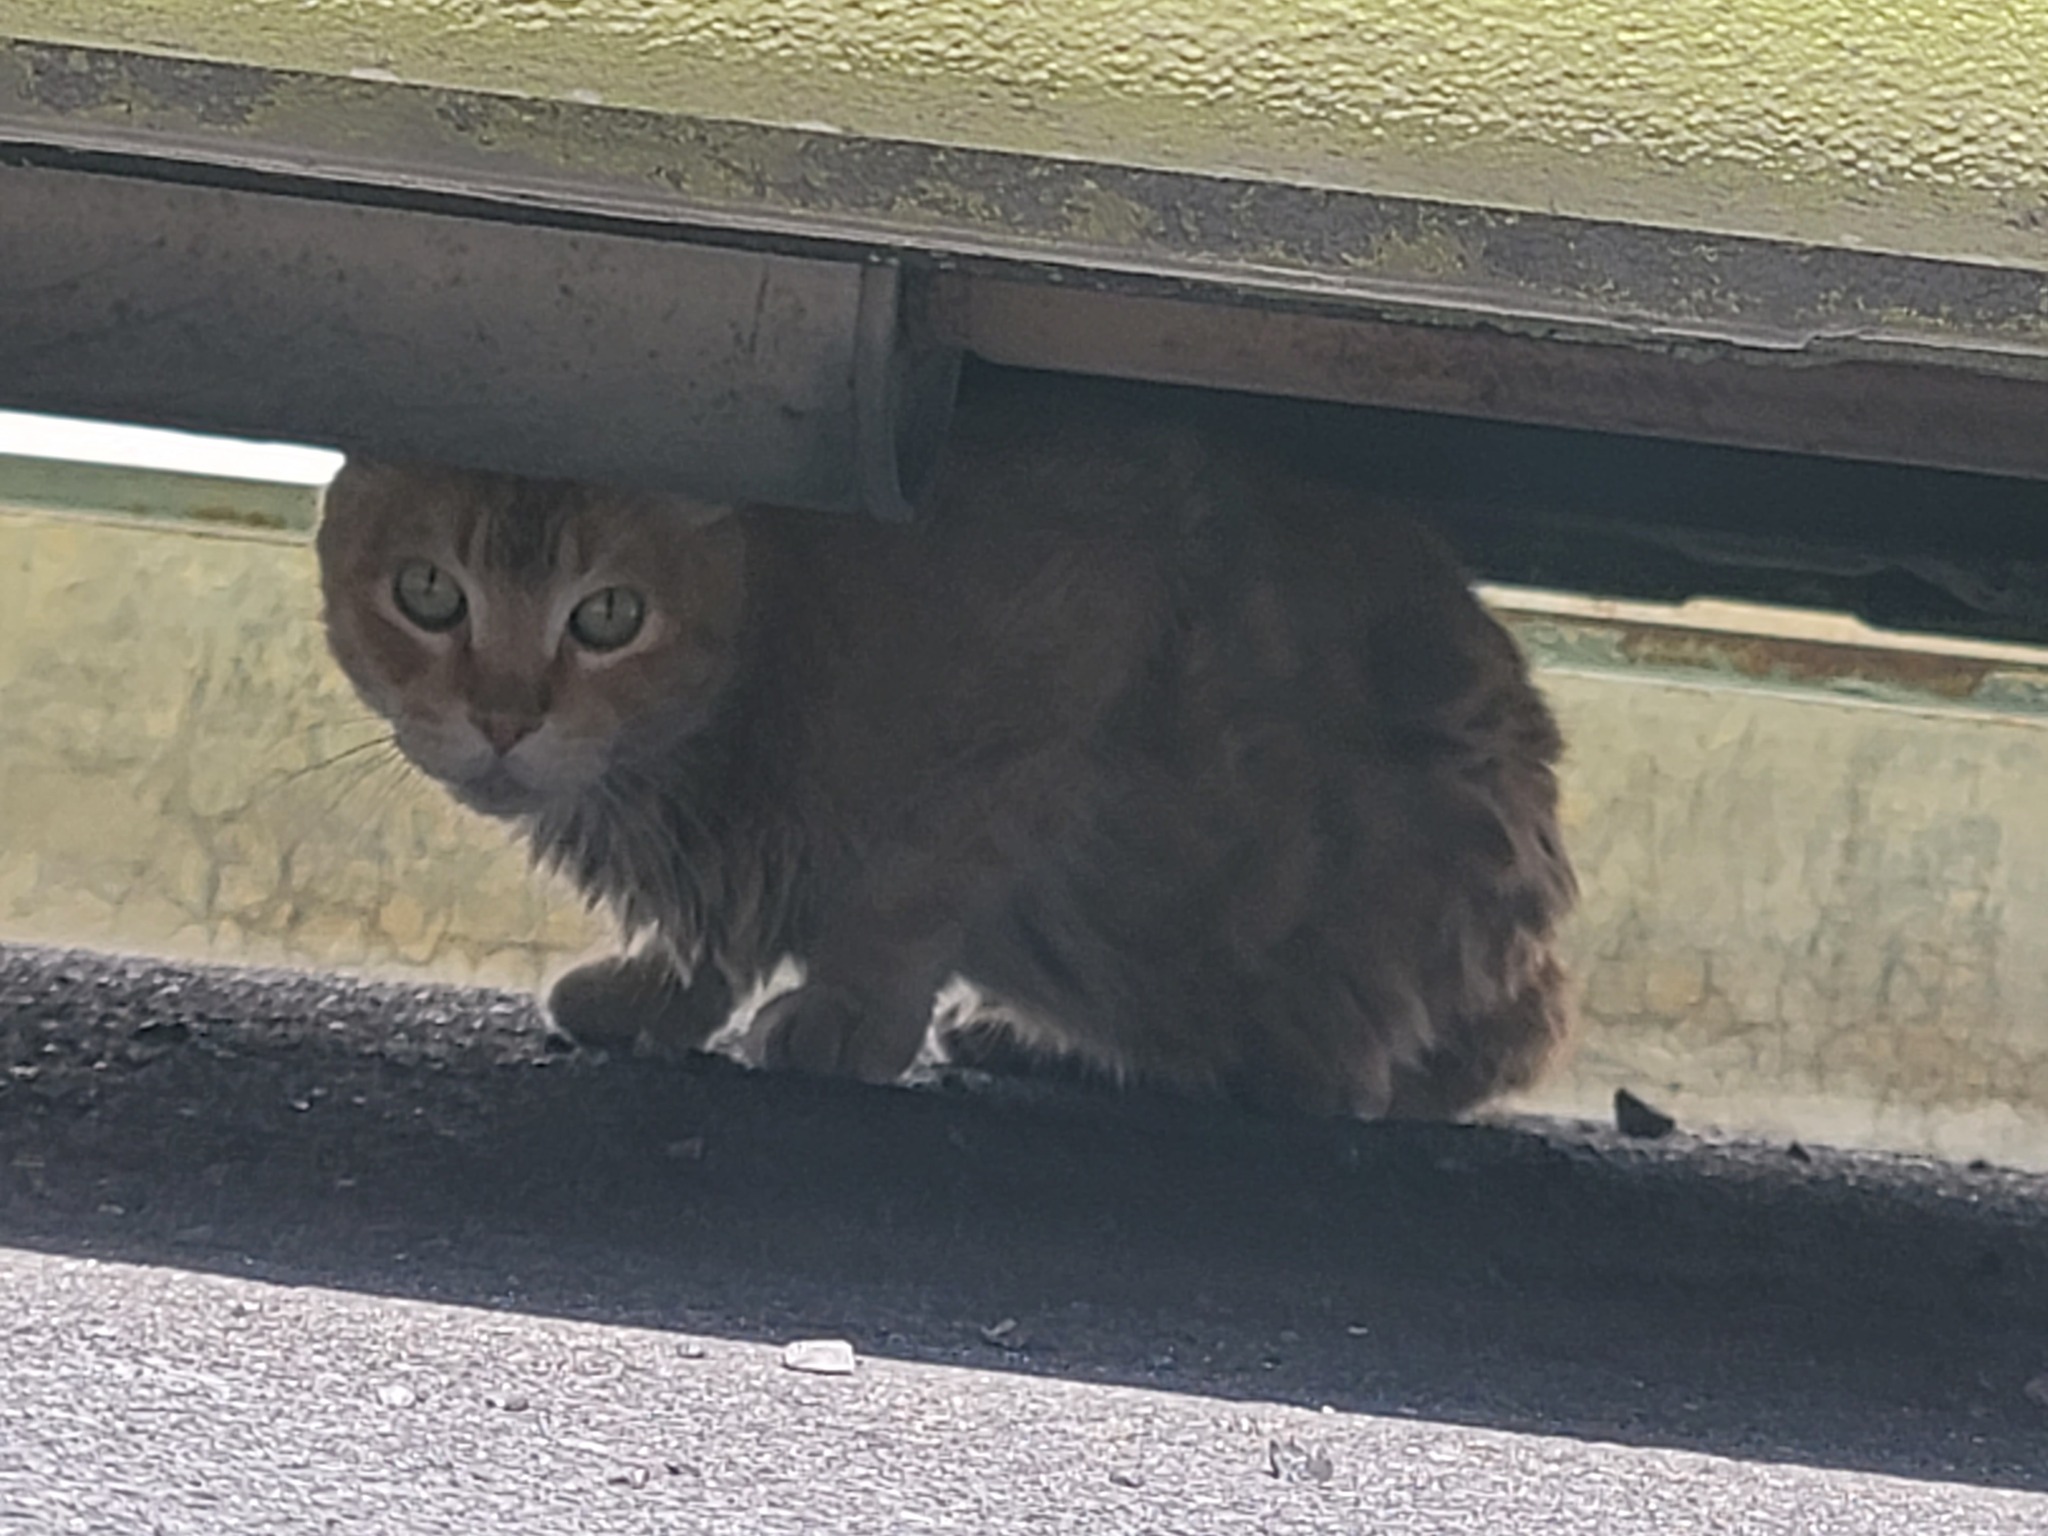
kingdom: Animalia
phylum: Chordata
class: Mammalia
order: Carnivora
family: Felidae
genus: Felis
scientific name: Felis catus
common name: Domestic cat
